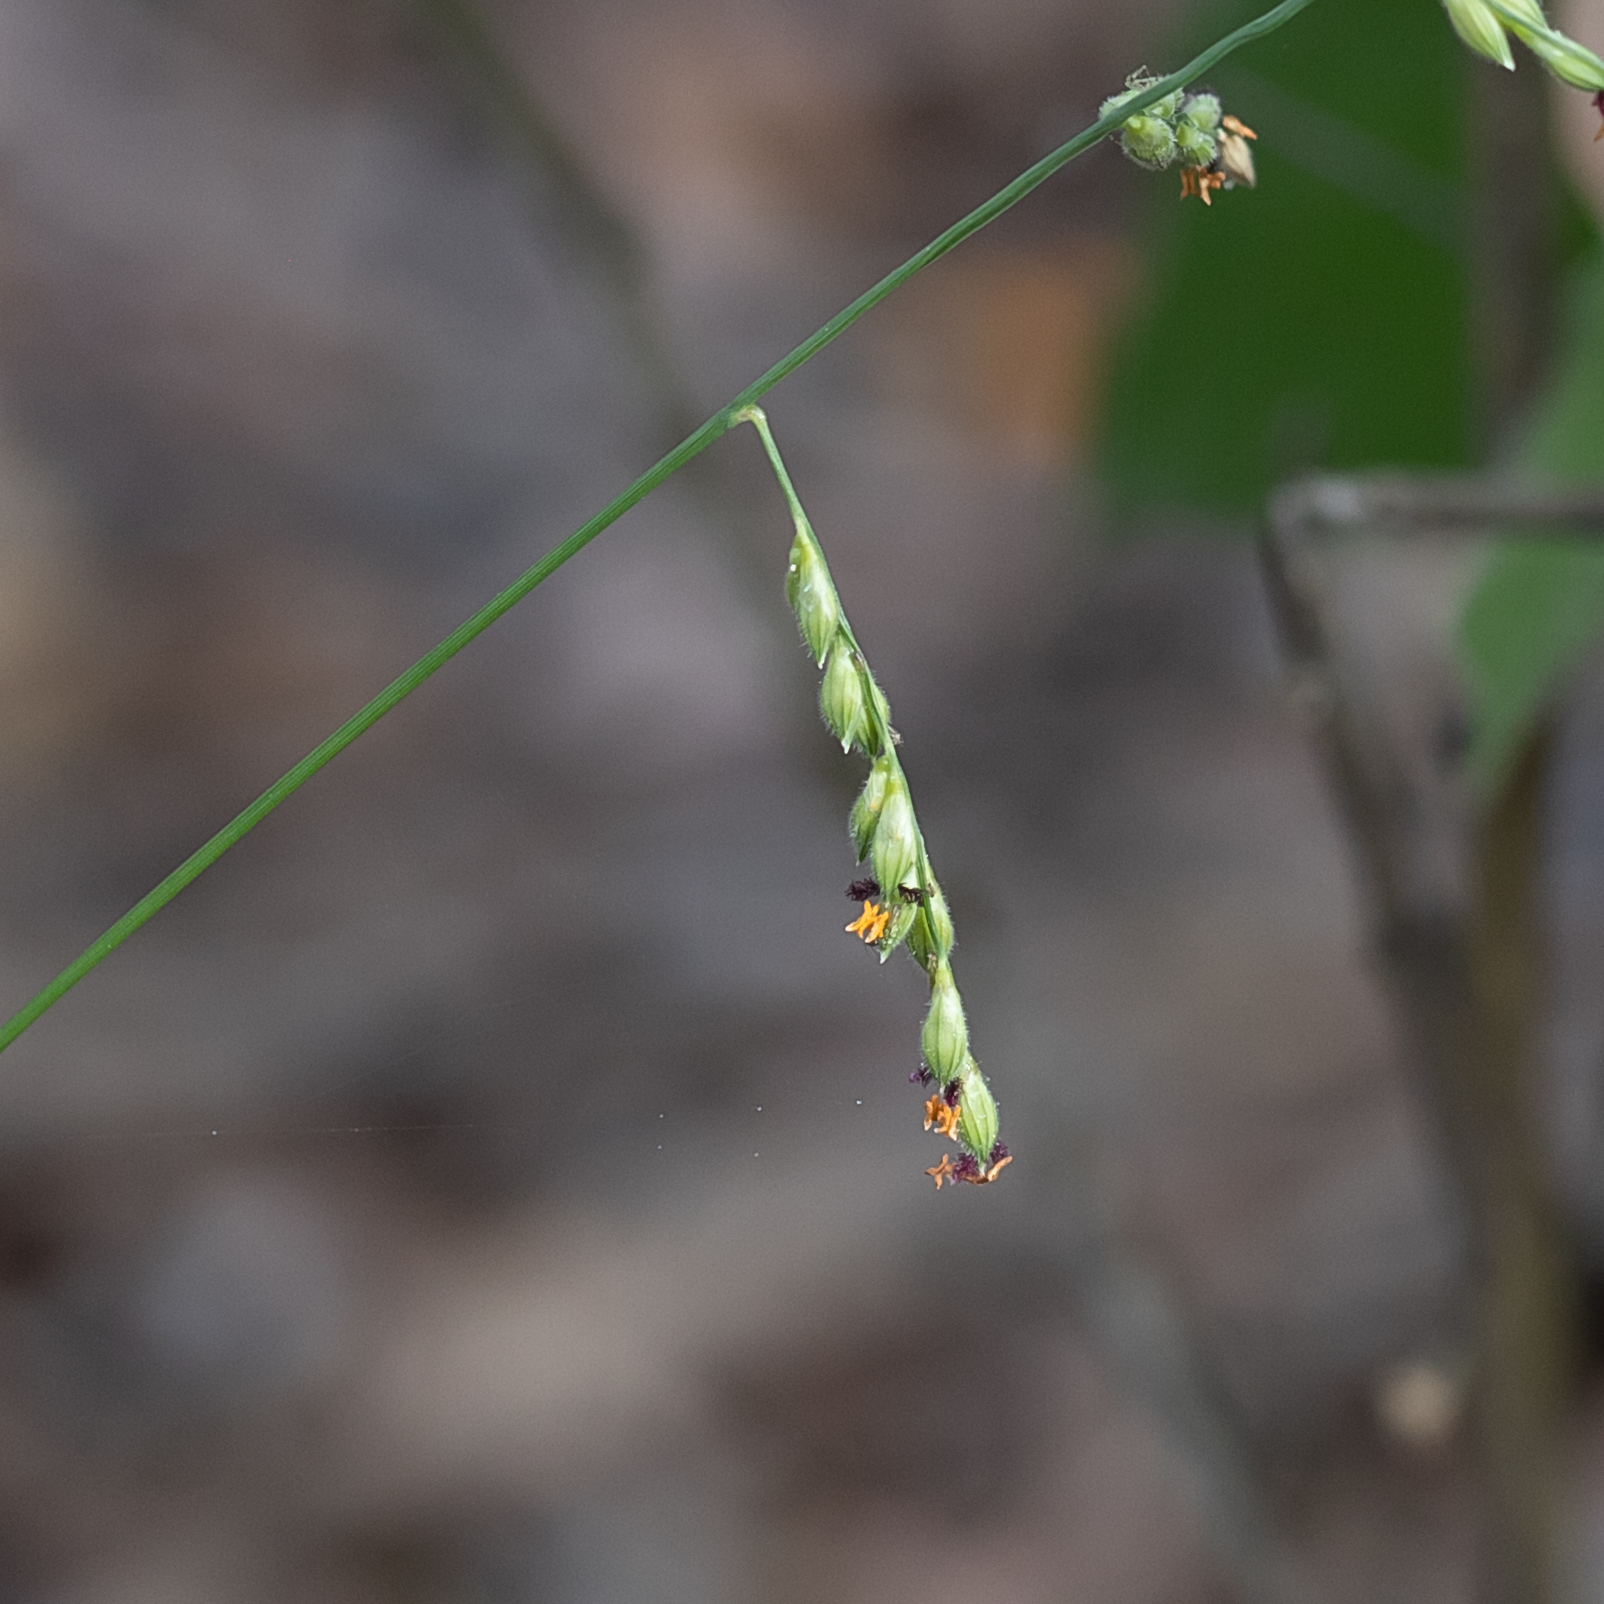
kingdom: Plantae
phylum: Tracheophyta
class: Liliopsida
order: Poales
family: Poaceae
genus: Urochloa
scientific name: Urochloa pubigera
